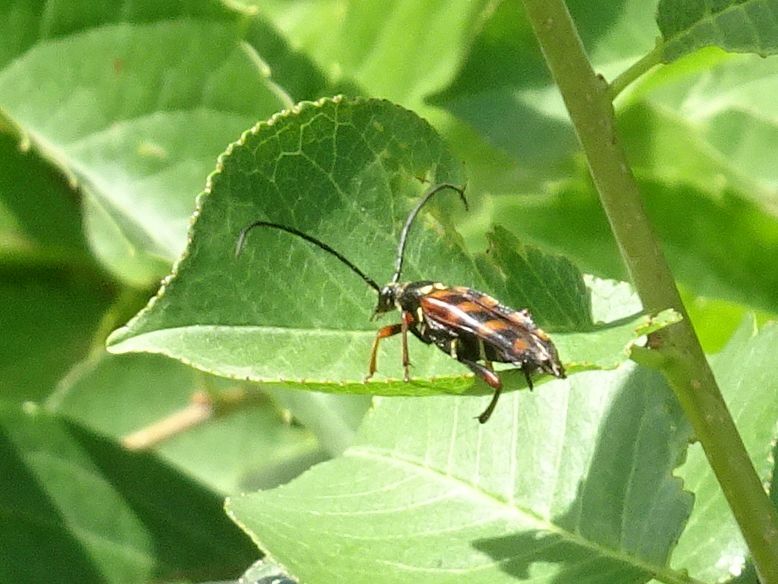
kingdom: Animalia
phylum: Arthropoda
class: Insecta
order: Coleoptera
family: Cerambycidae
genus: Leptura
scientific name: Leptura aurulenta
